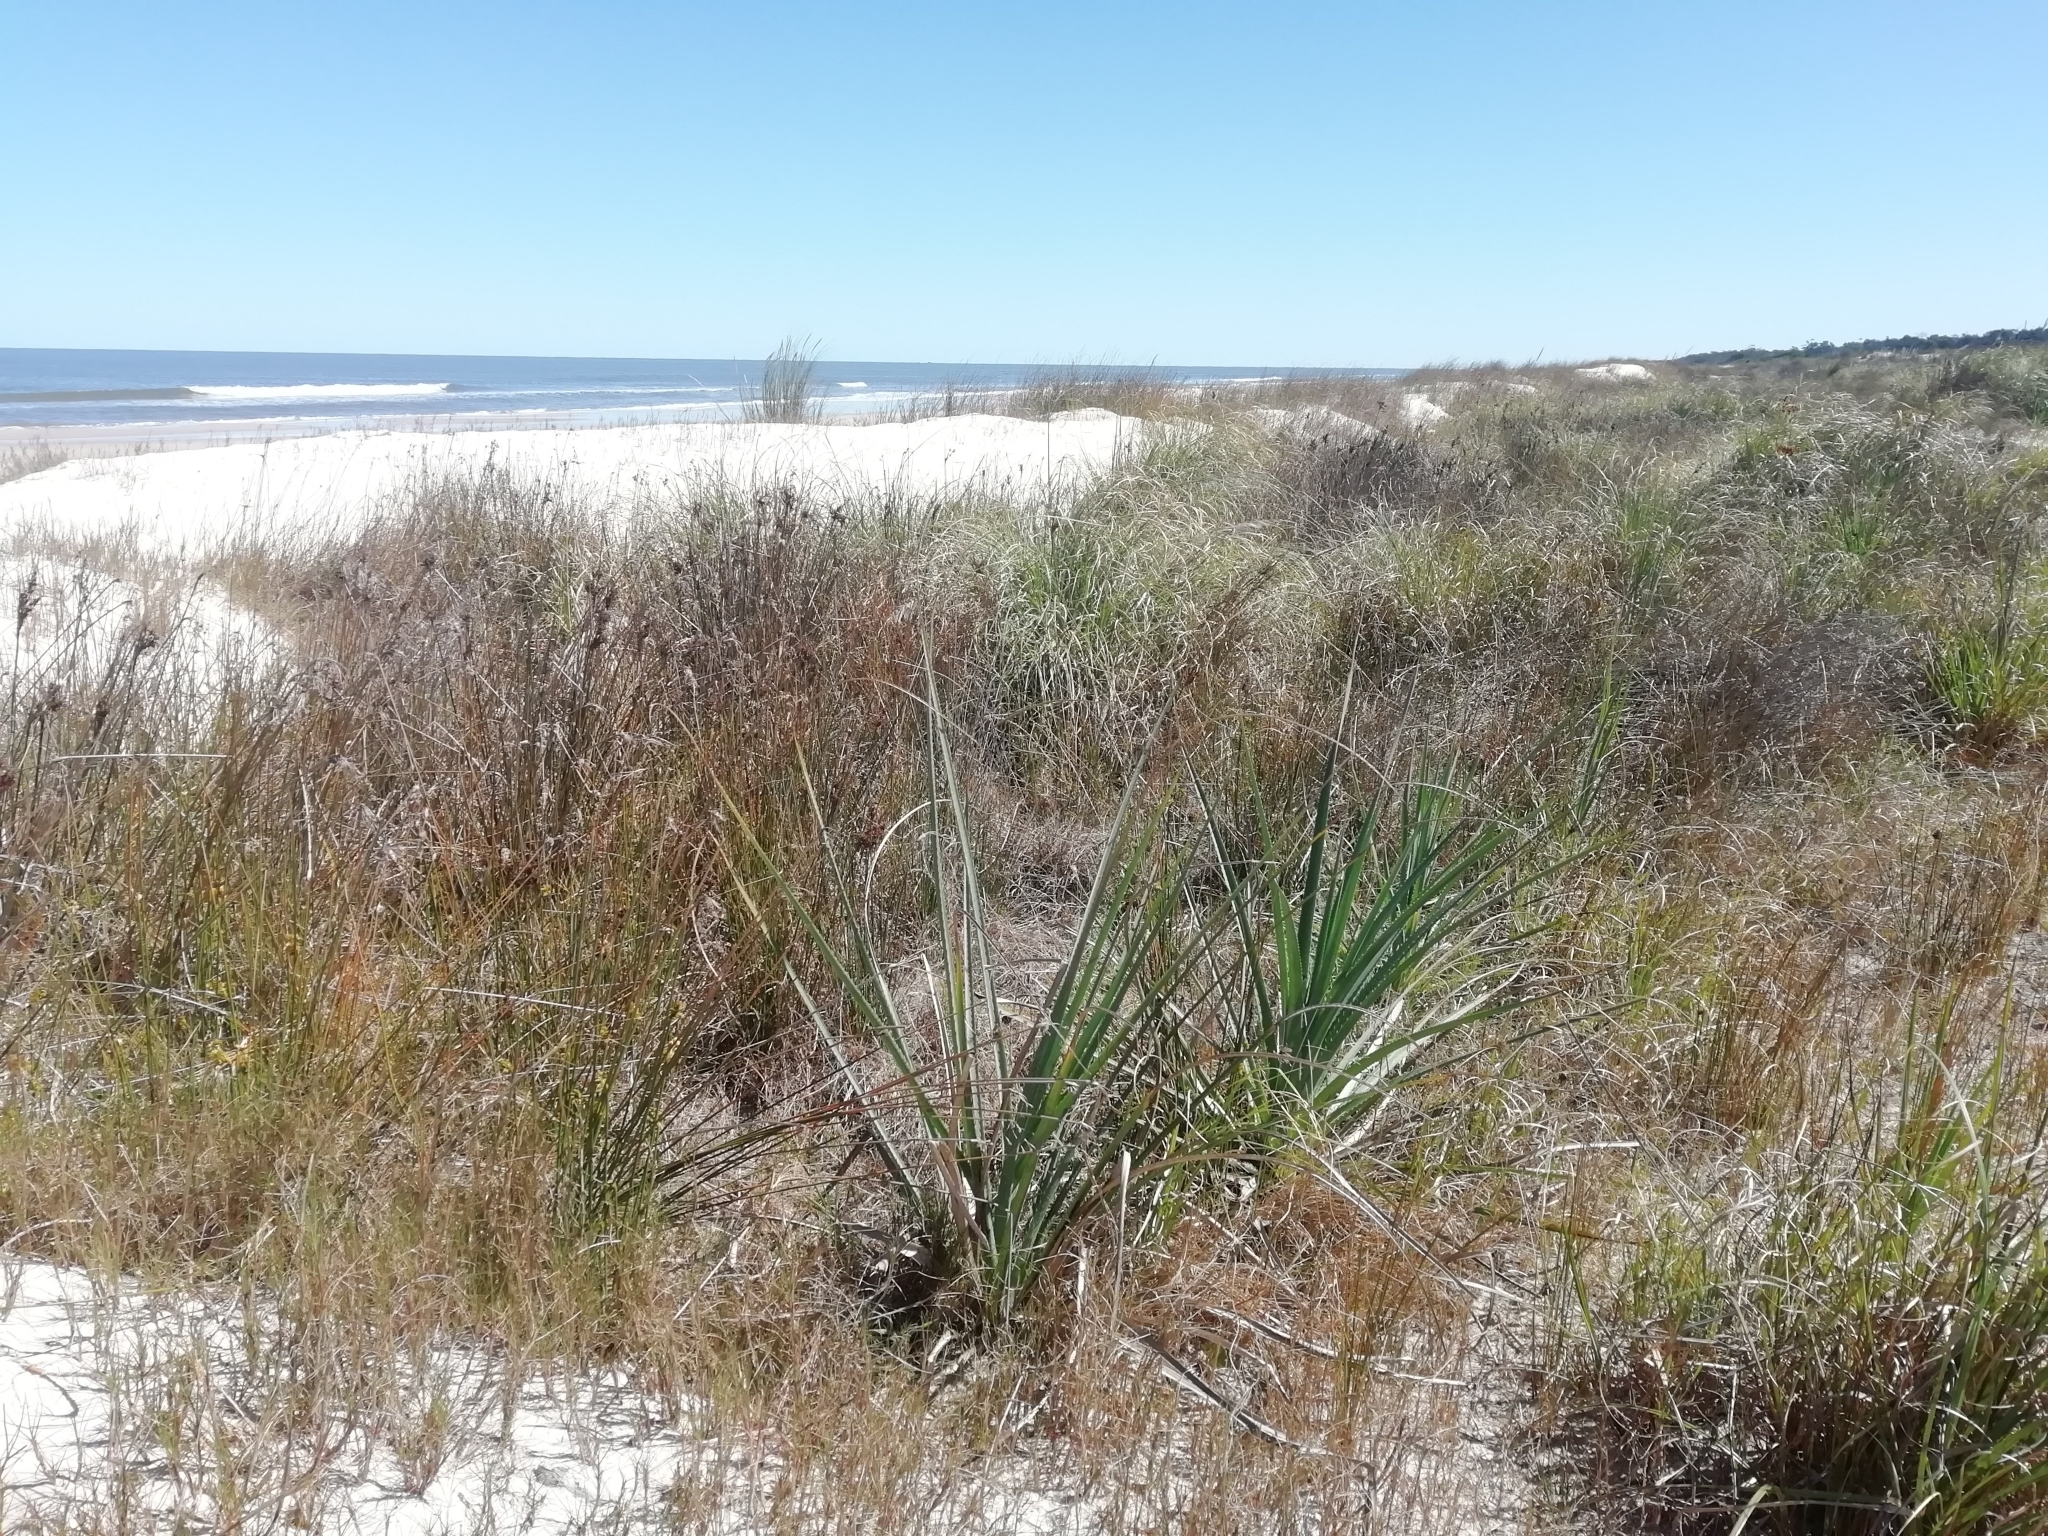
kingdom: Plantae
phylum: Tracheophyta
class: Magnoliopsida
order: Apiales
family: Apiaceae
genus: Eryngium
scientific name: Eryngium pandanifolium
